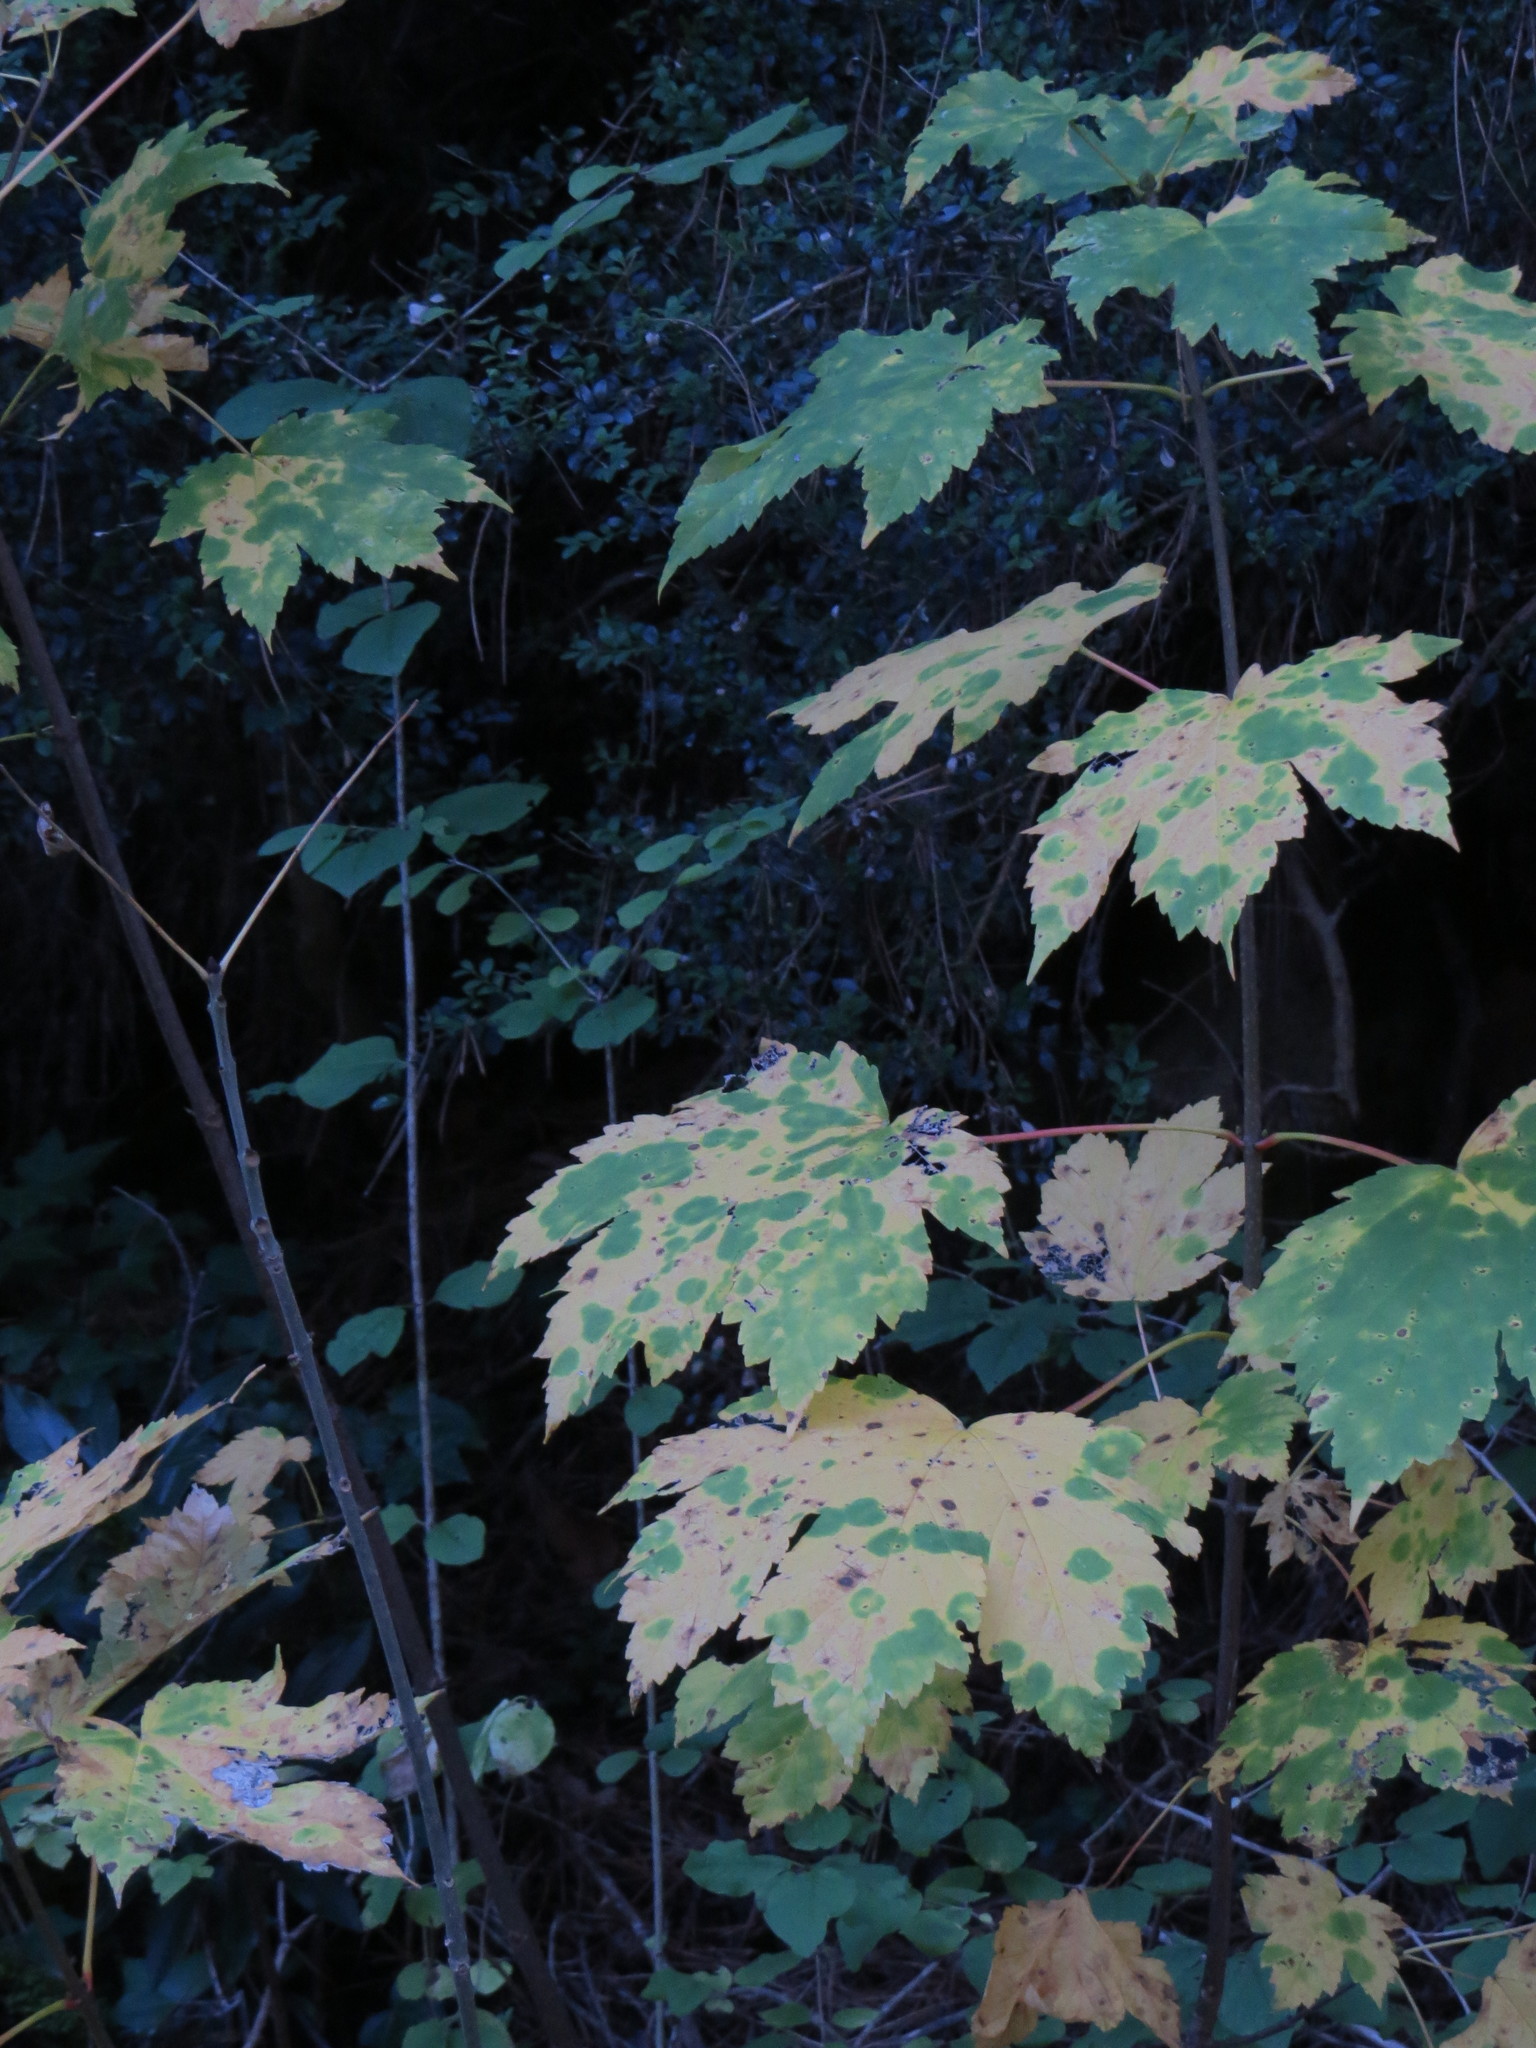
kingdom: Plantae
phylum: Tracheophyta
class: Magnoliopsida
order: Sapindales
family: Sapindaceae
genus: Acer
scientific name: Acer pseudoplatanus
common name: Sycamore
